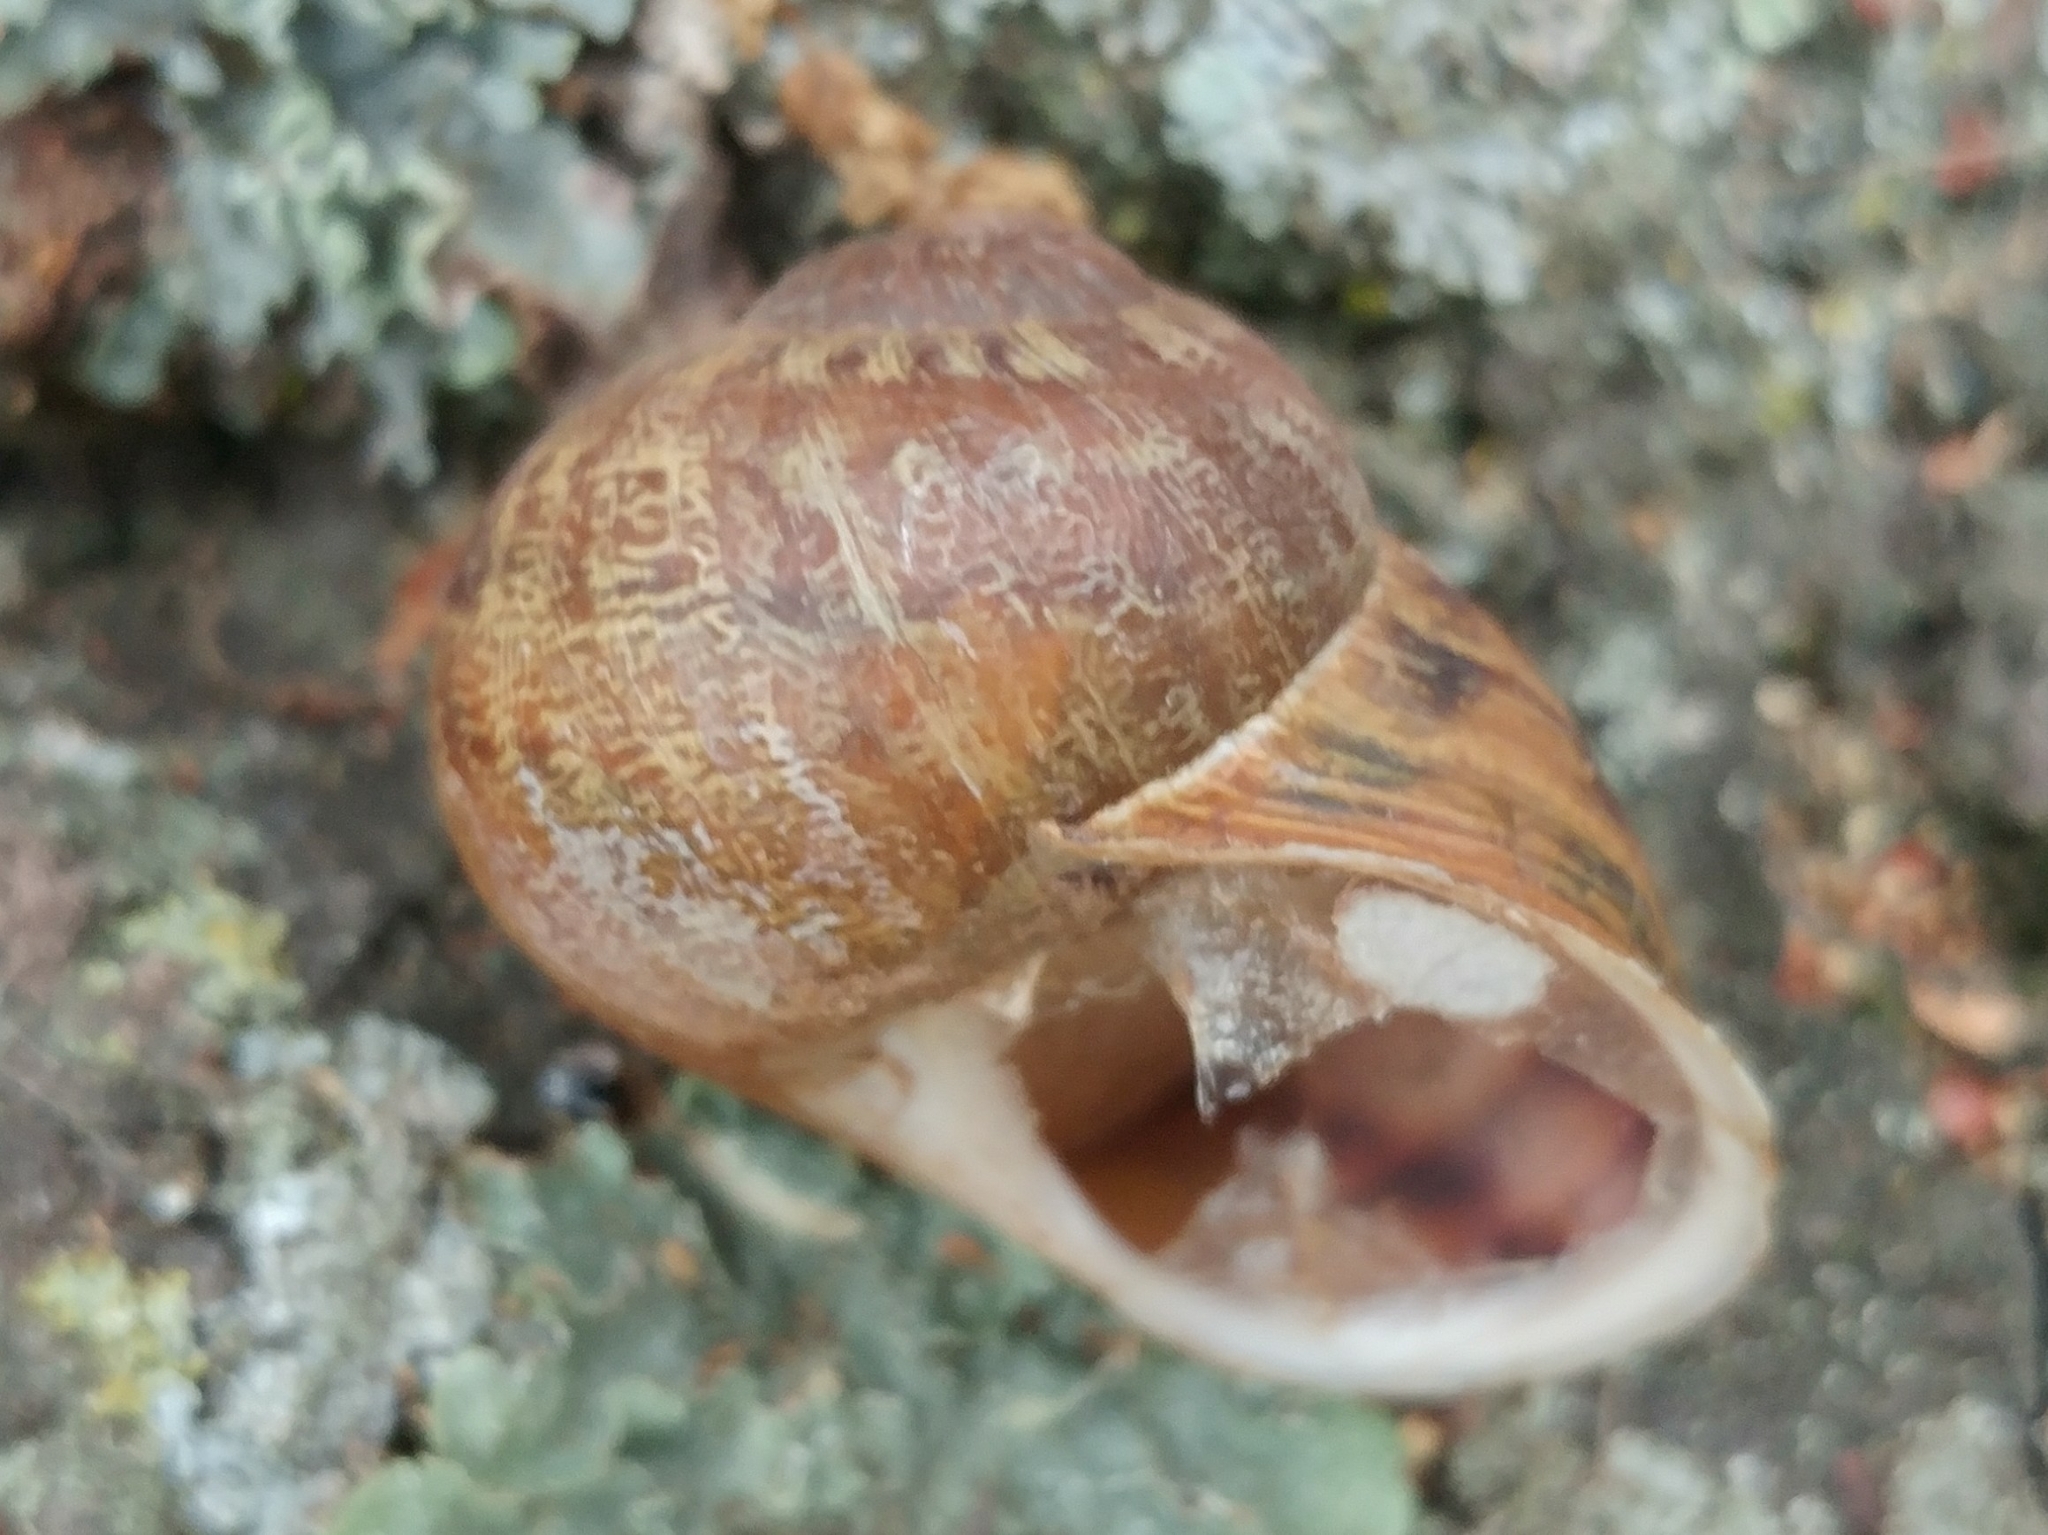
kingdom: Animalia
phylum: Mollusca
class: Gastropoda
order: Stylommatophora
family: Helicidae
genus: Cornu
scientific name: Cornu aspersum
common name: Brown garden snail
